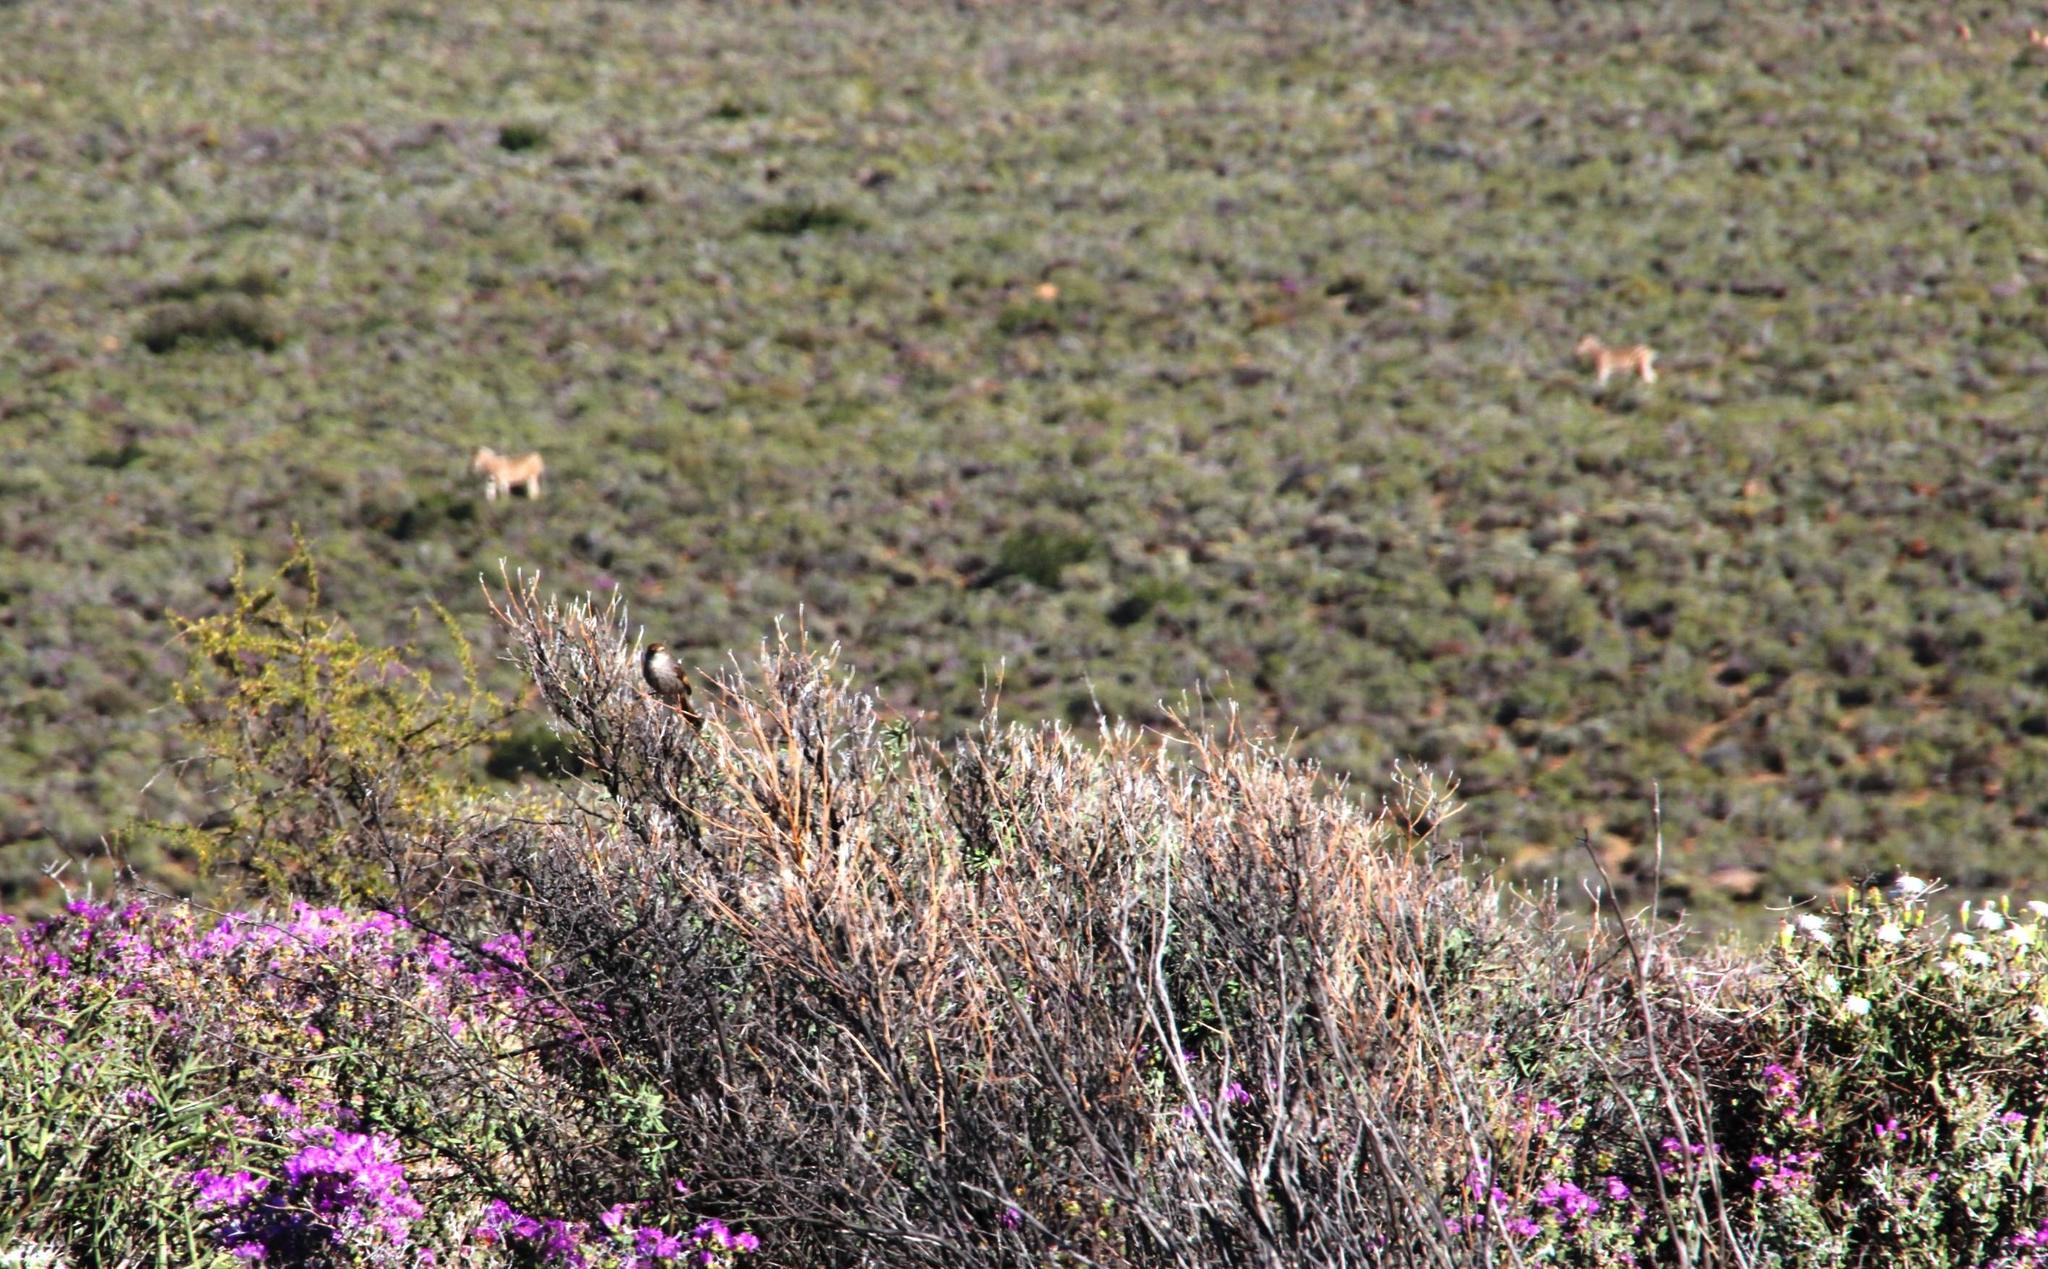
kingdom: Animalia
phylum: Chordata
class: Mammalia
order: Perissodactyla
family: Equidae
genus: Equus
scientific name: Equus quagga
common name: Plains zebra
